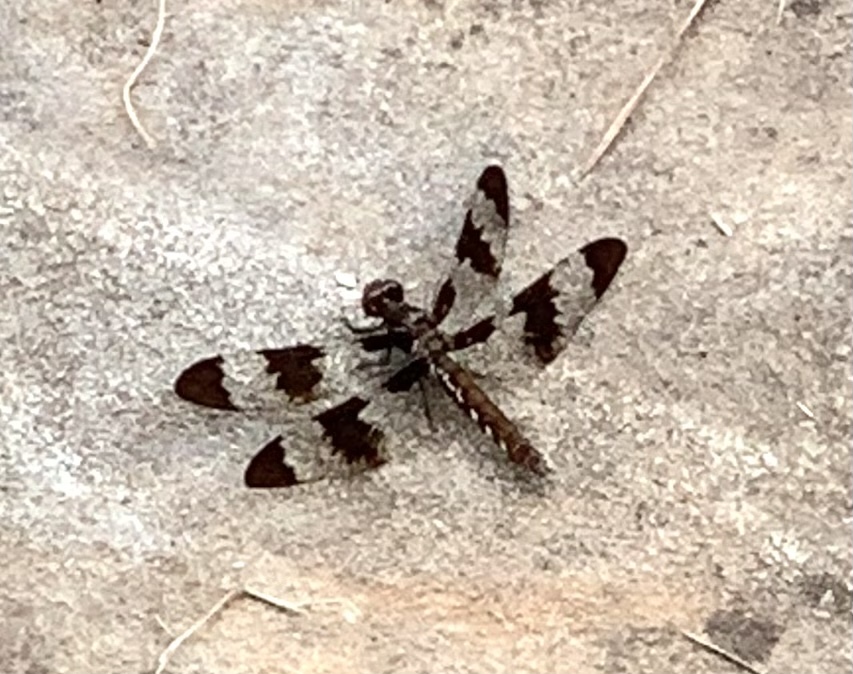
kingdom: Animalia
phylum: Arthropoda
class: Insecta
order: Odonata
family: Libellulidae
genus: Plathemis
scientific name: Plathemis lydia
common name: Common whitetail
